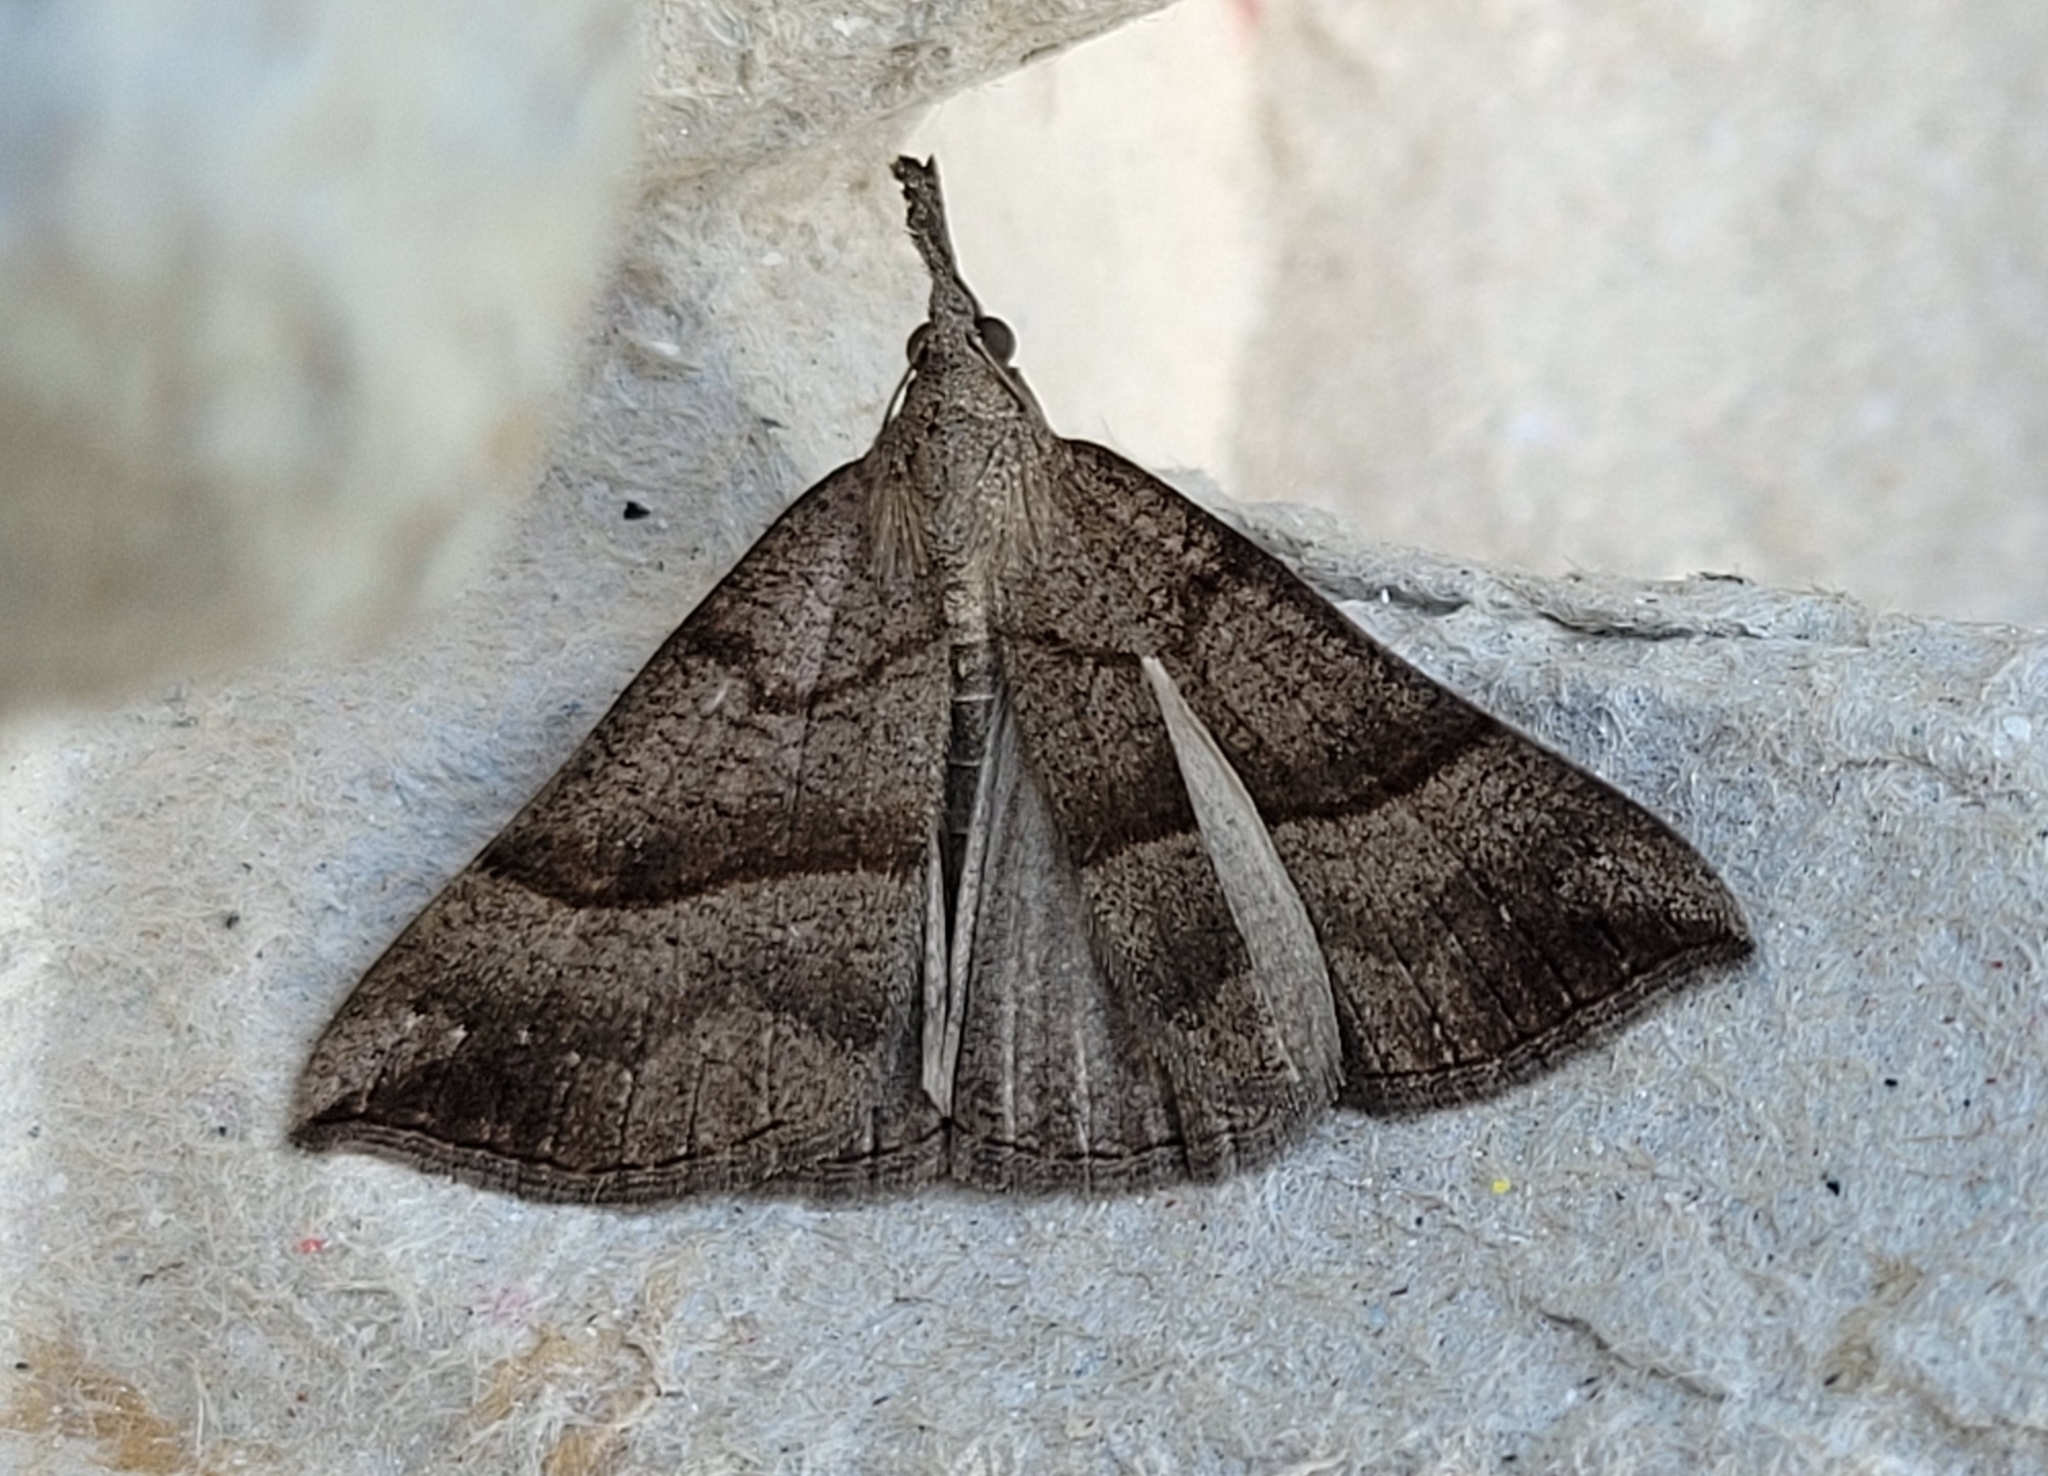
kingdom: Animalia
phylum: Arthropoda
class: Insecta
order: Lepidoptera
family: Erebidae
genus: Hypena
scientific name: Hypena proboscidalis
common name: Snout
